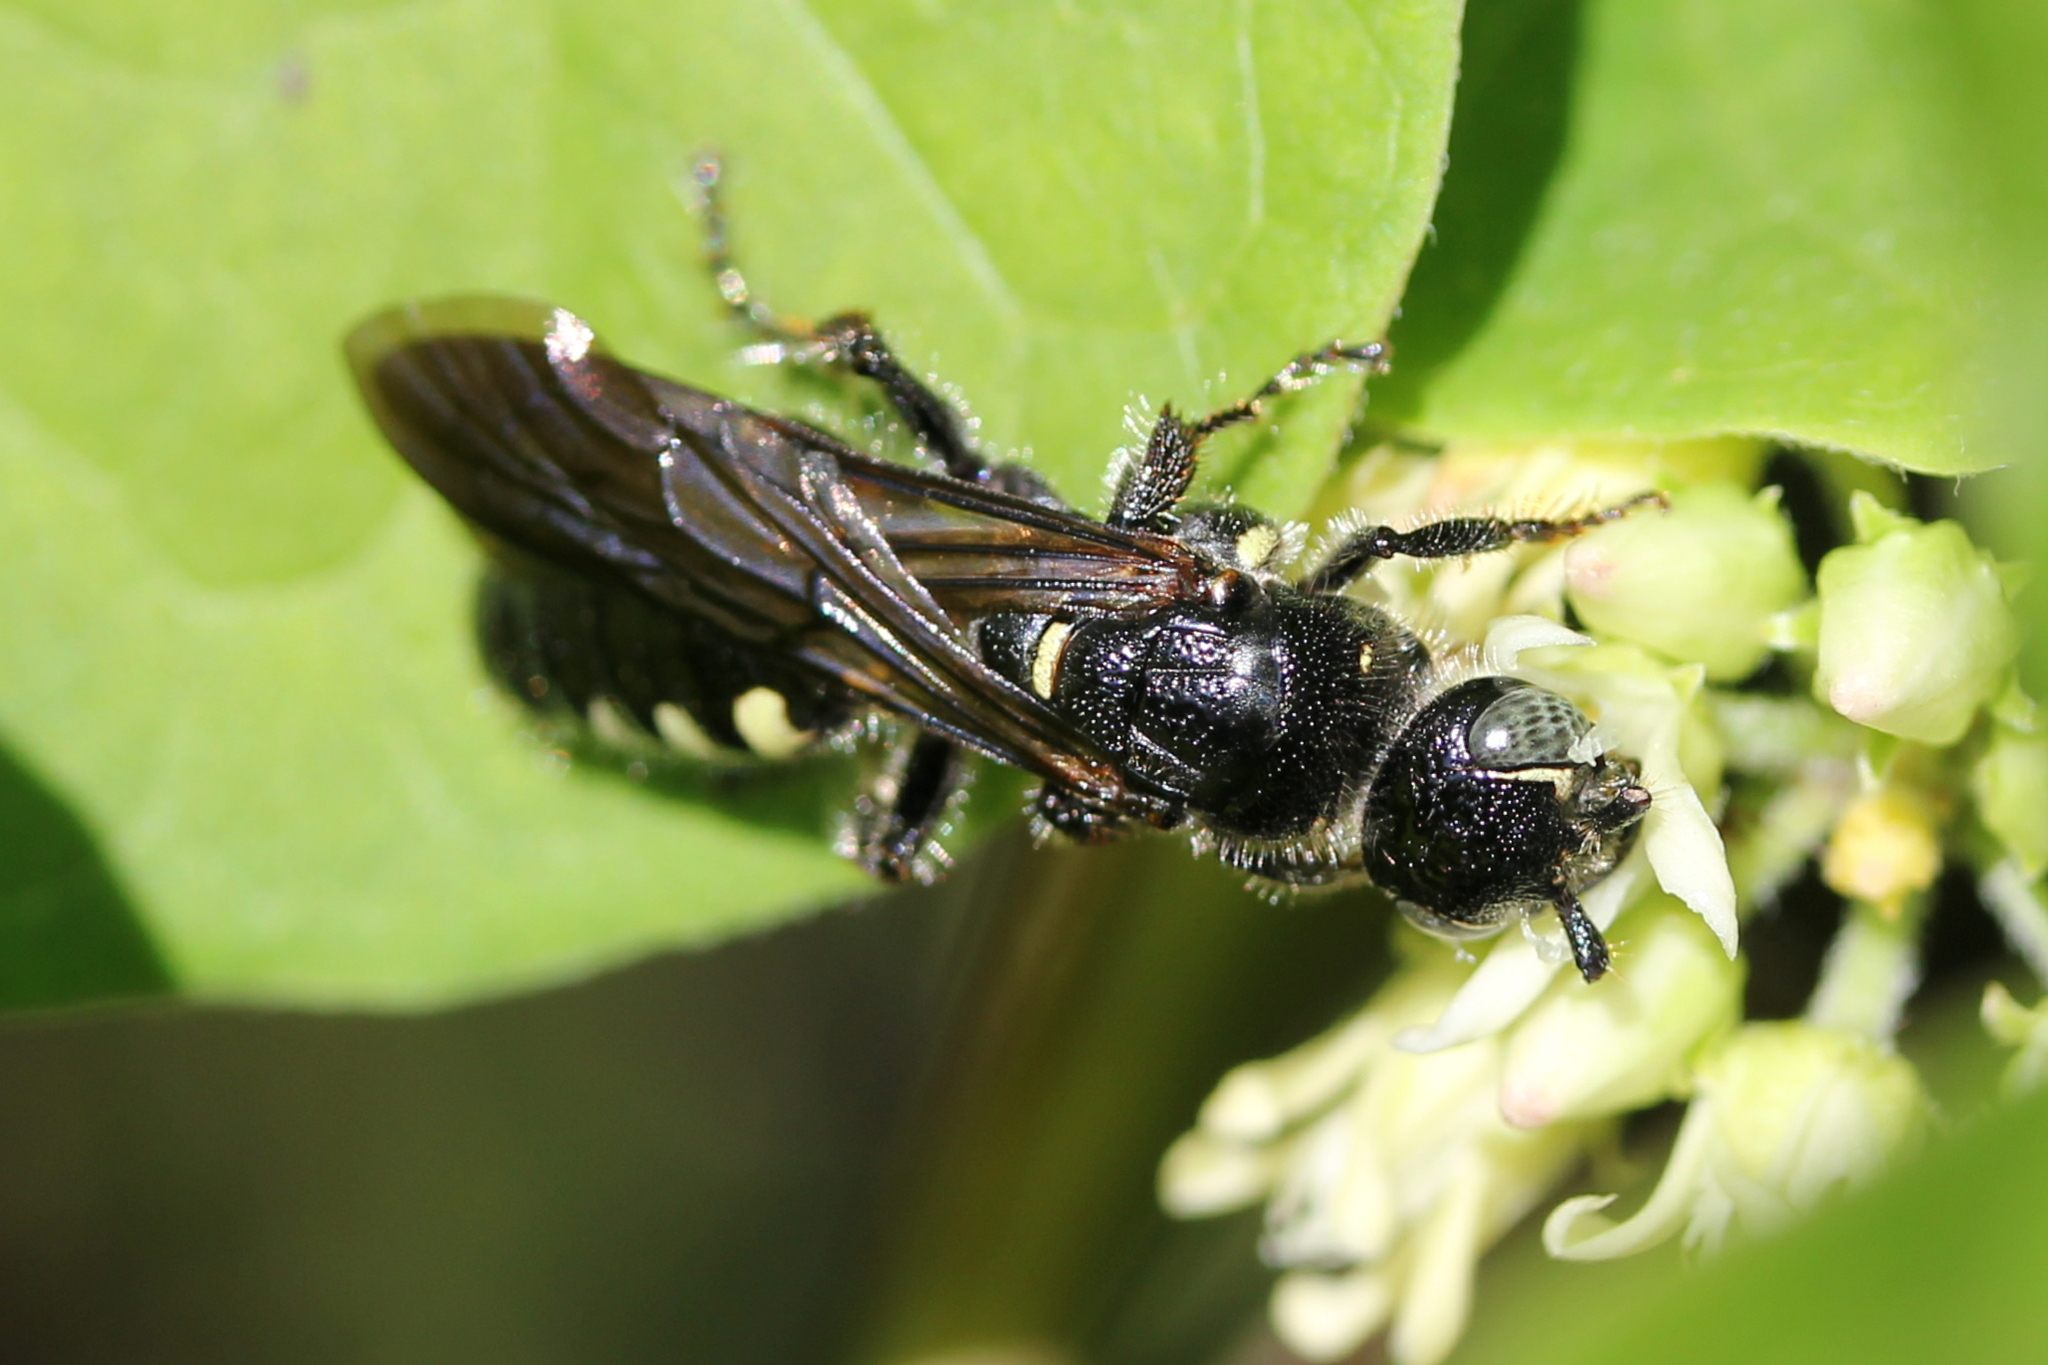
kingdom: Animalia
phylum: Arthropoda
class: Insecta
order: Hymenoptera
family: Tiphiidae
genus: Myzinum
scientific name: Myzinum obscurum
